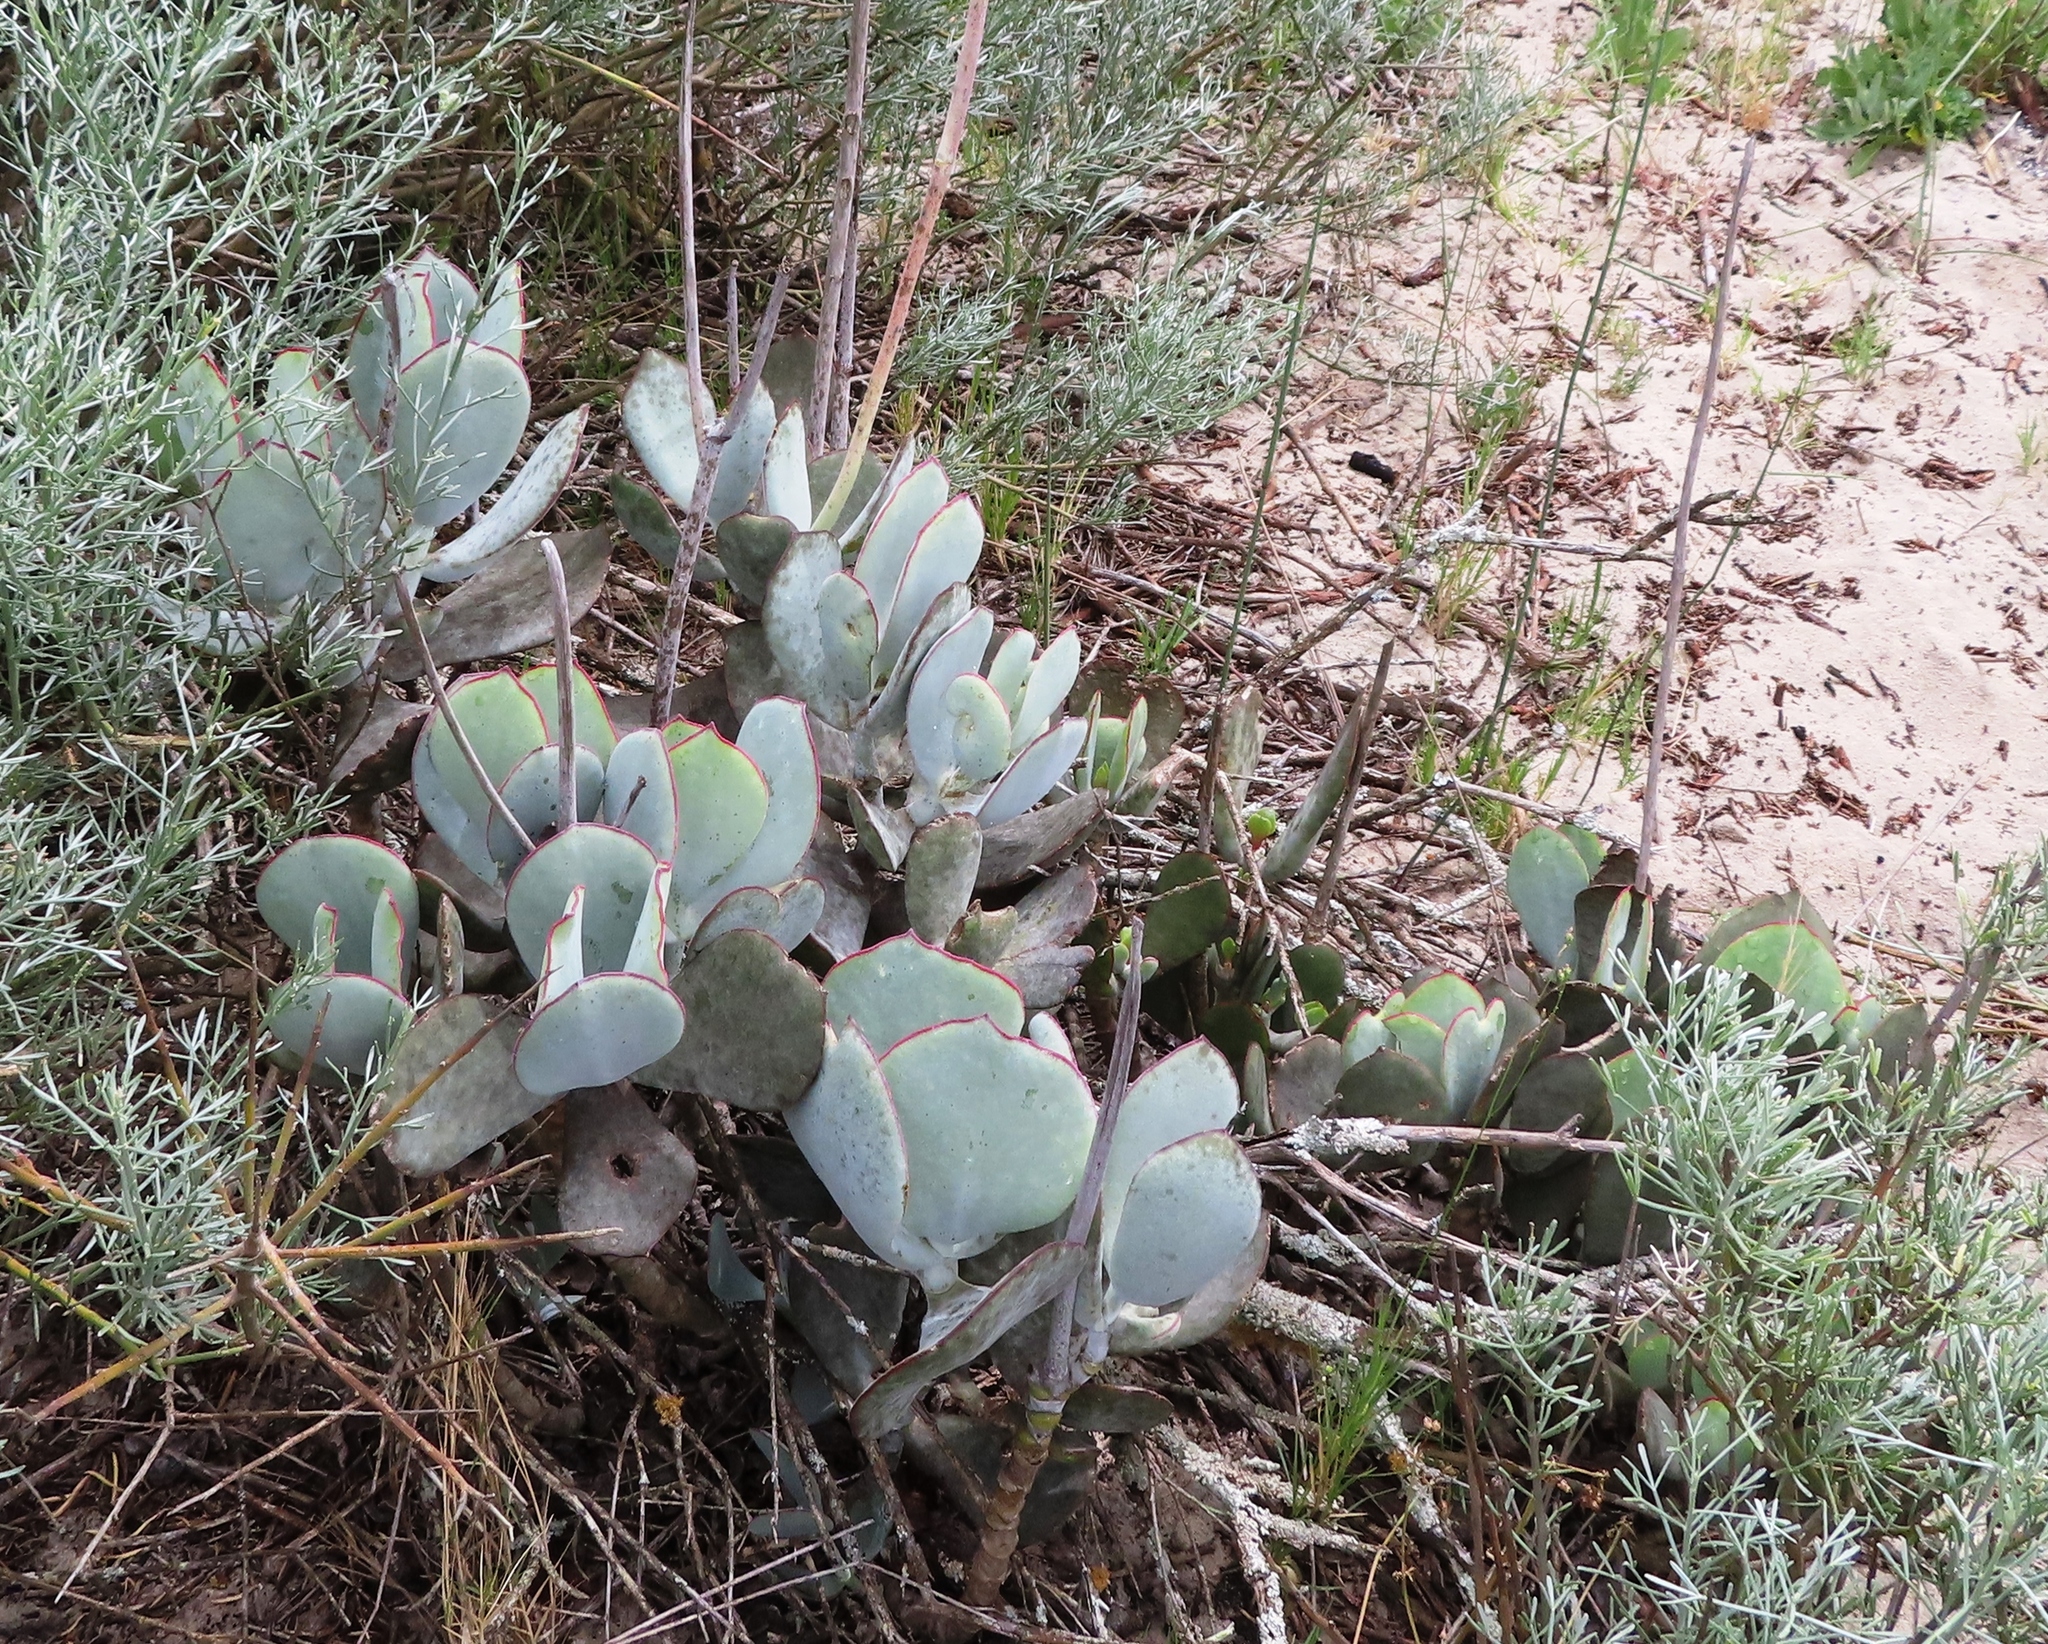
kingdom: Plantae
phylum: Tracheophyta
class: Magnoliopsida
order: Saxifragales
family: Crassulaceae
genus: Cotyledon
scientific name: Cotyledon orbiculata
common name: Pig's ear
